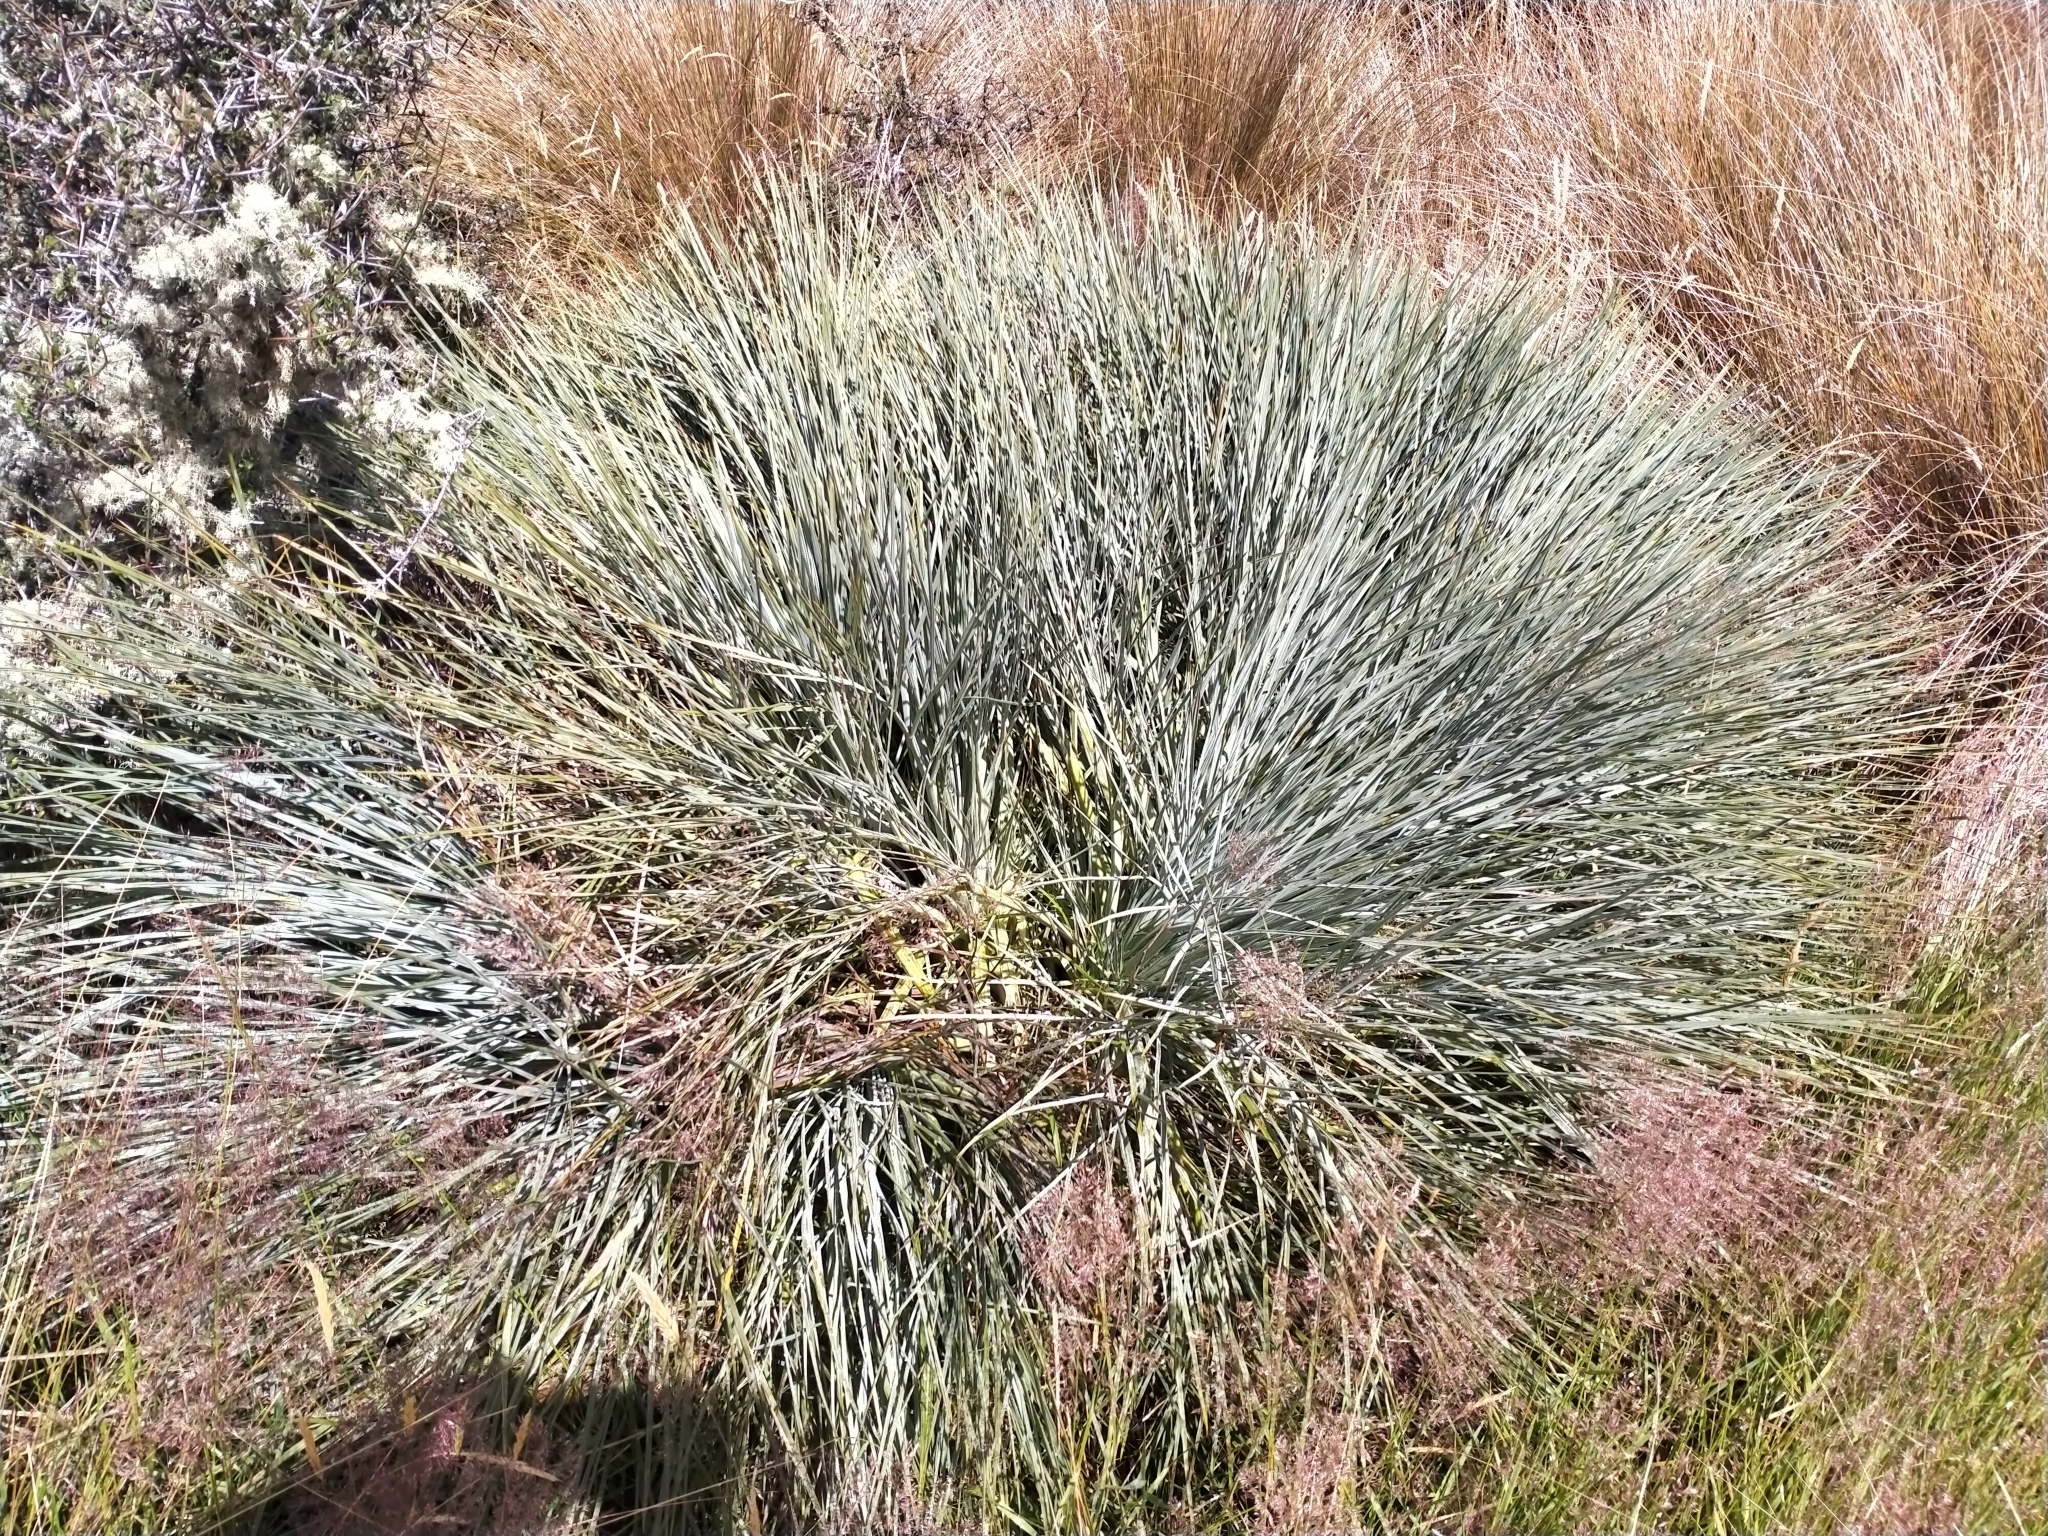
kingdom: Plantae
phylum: Tracheophyta
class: Magnoliopsida
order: Apiales
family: Apiaceae
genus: Aciphylla
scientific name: Aciphylla glaucescens
